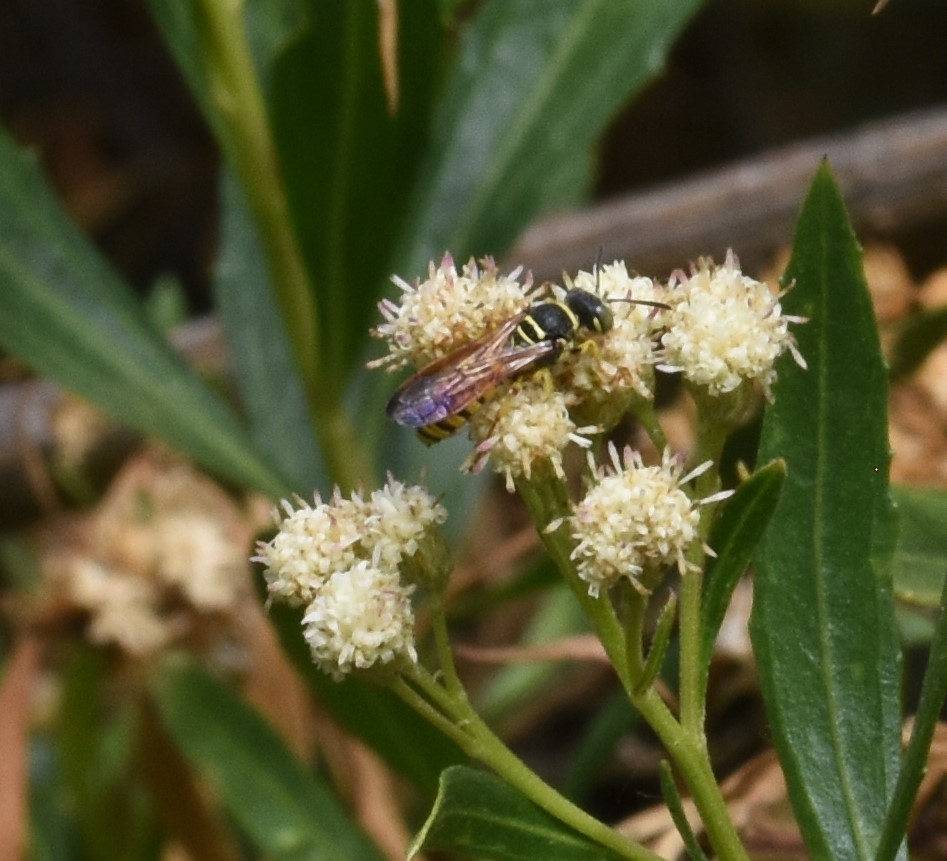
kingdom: Animalia
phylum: Arthropoda
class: Insecta
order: Hymenoptera
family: Crabronidae
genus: Eucerceris
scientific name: Eucerceris provancheri
